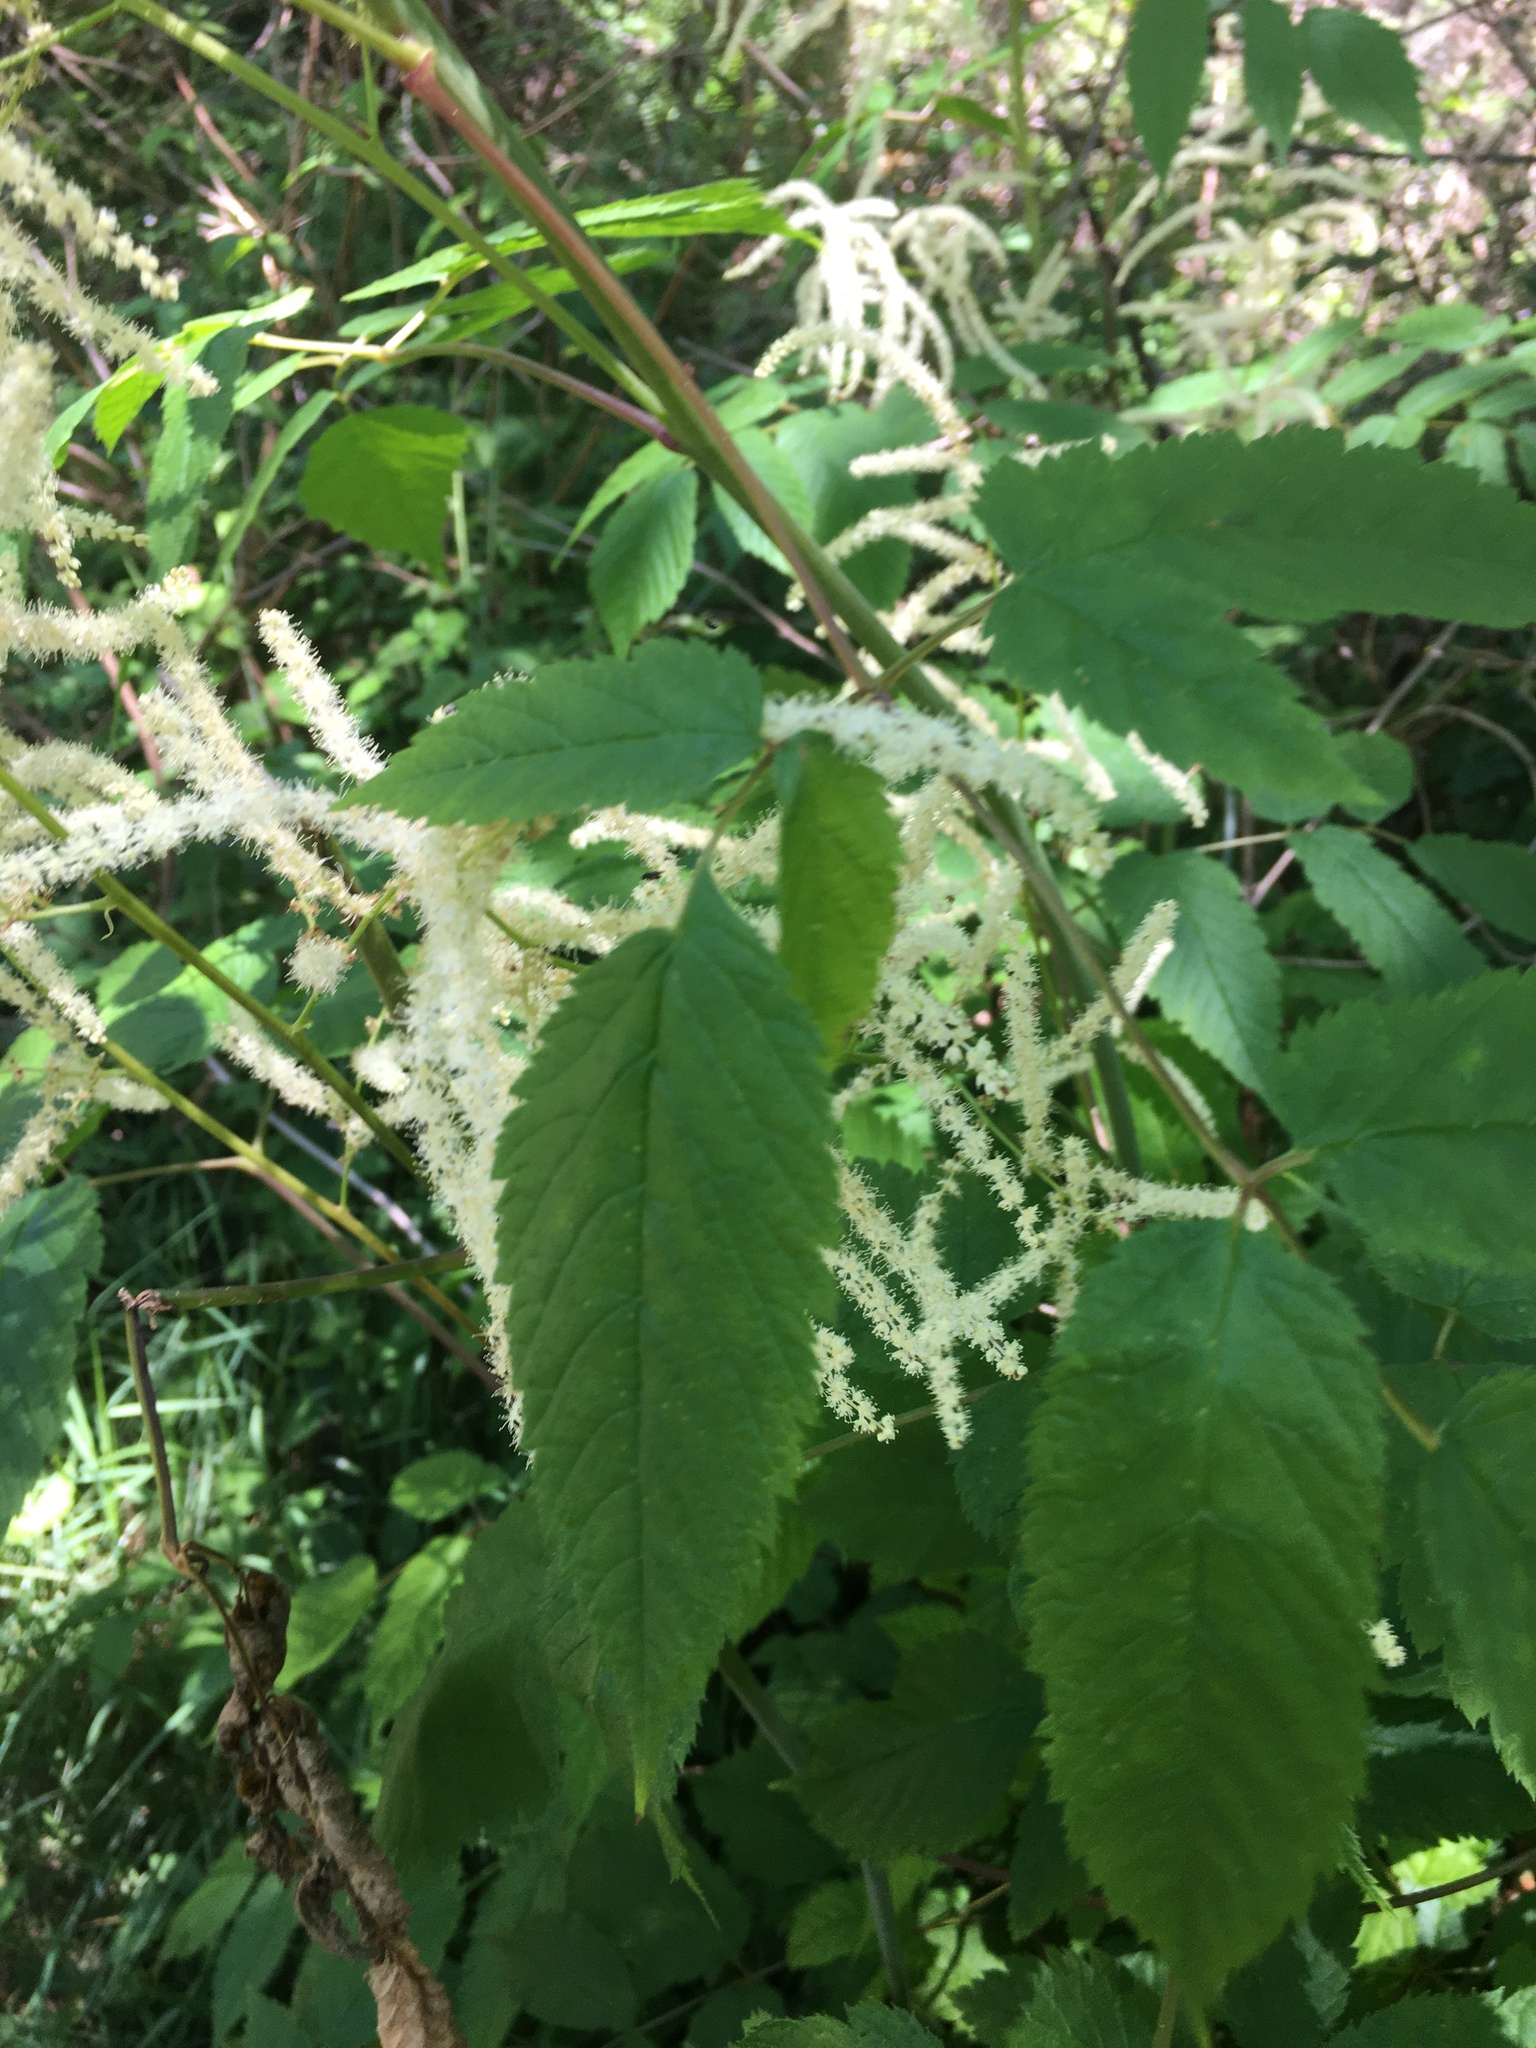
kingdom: Plantae
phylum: Tracheophyta
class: Magnoliopsida
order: Rosales
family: Rosaceae
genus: Aruncus
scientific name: Aruncus dioicus
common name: Buck's-beard
